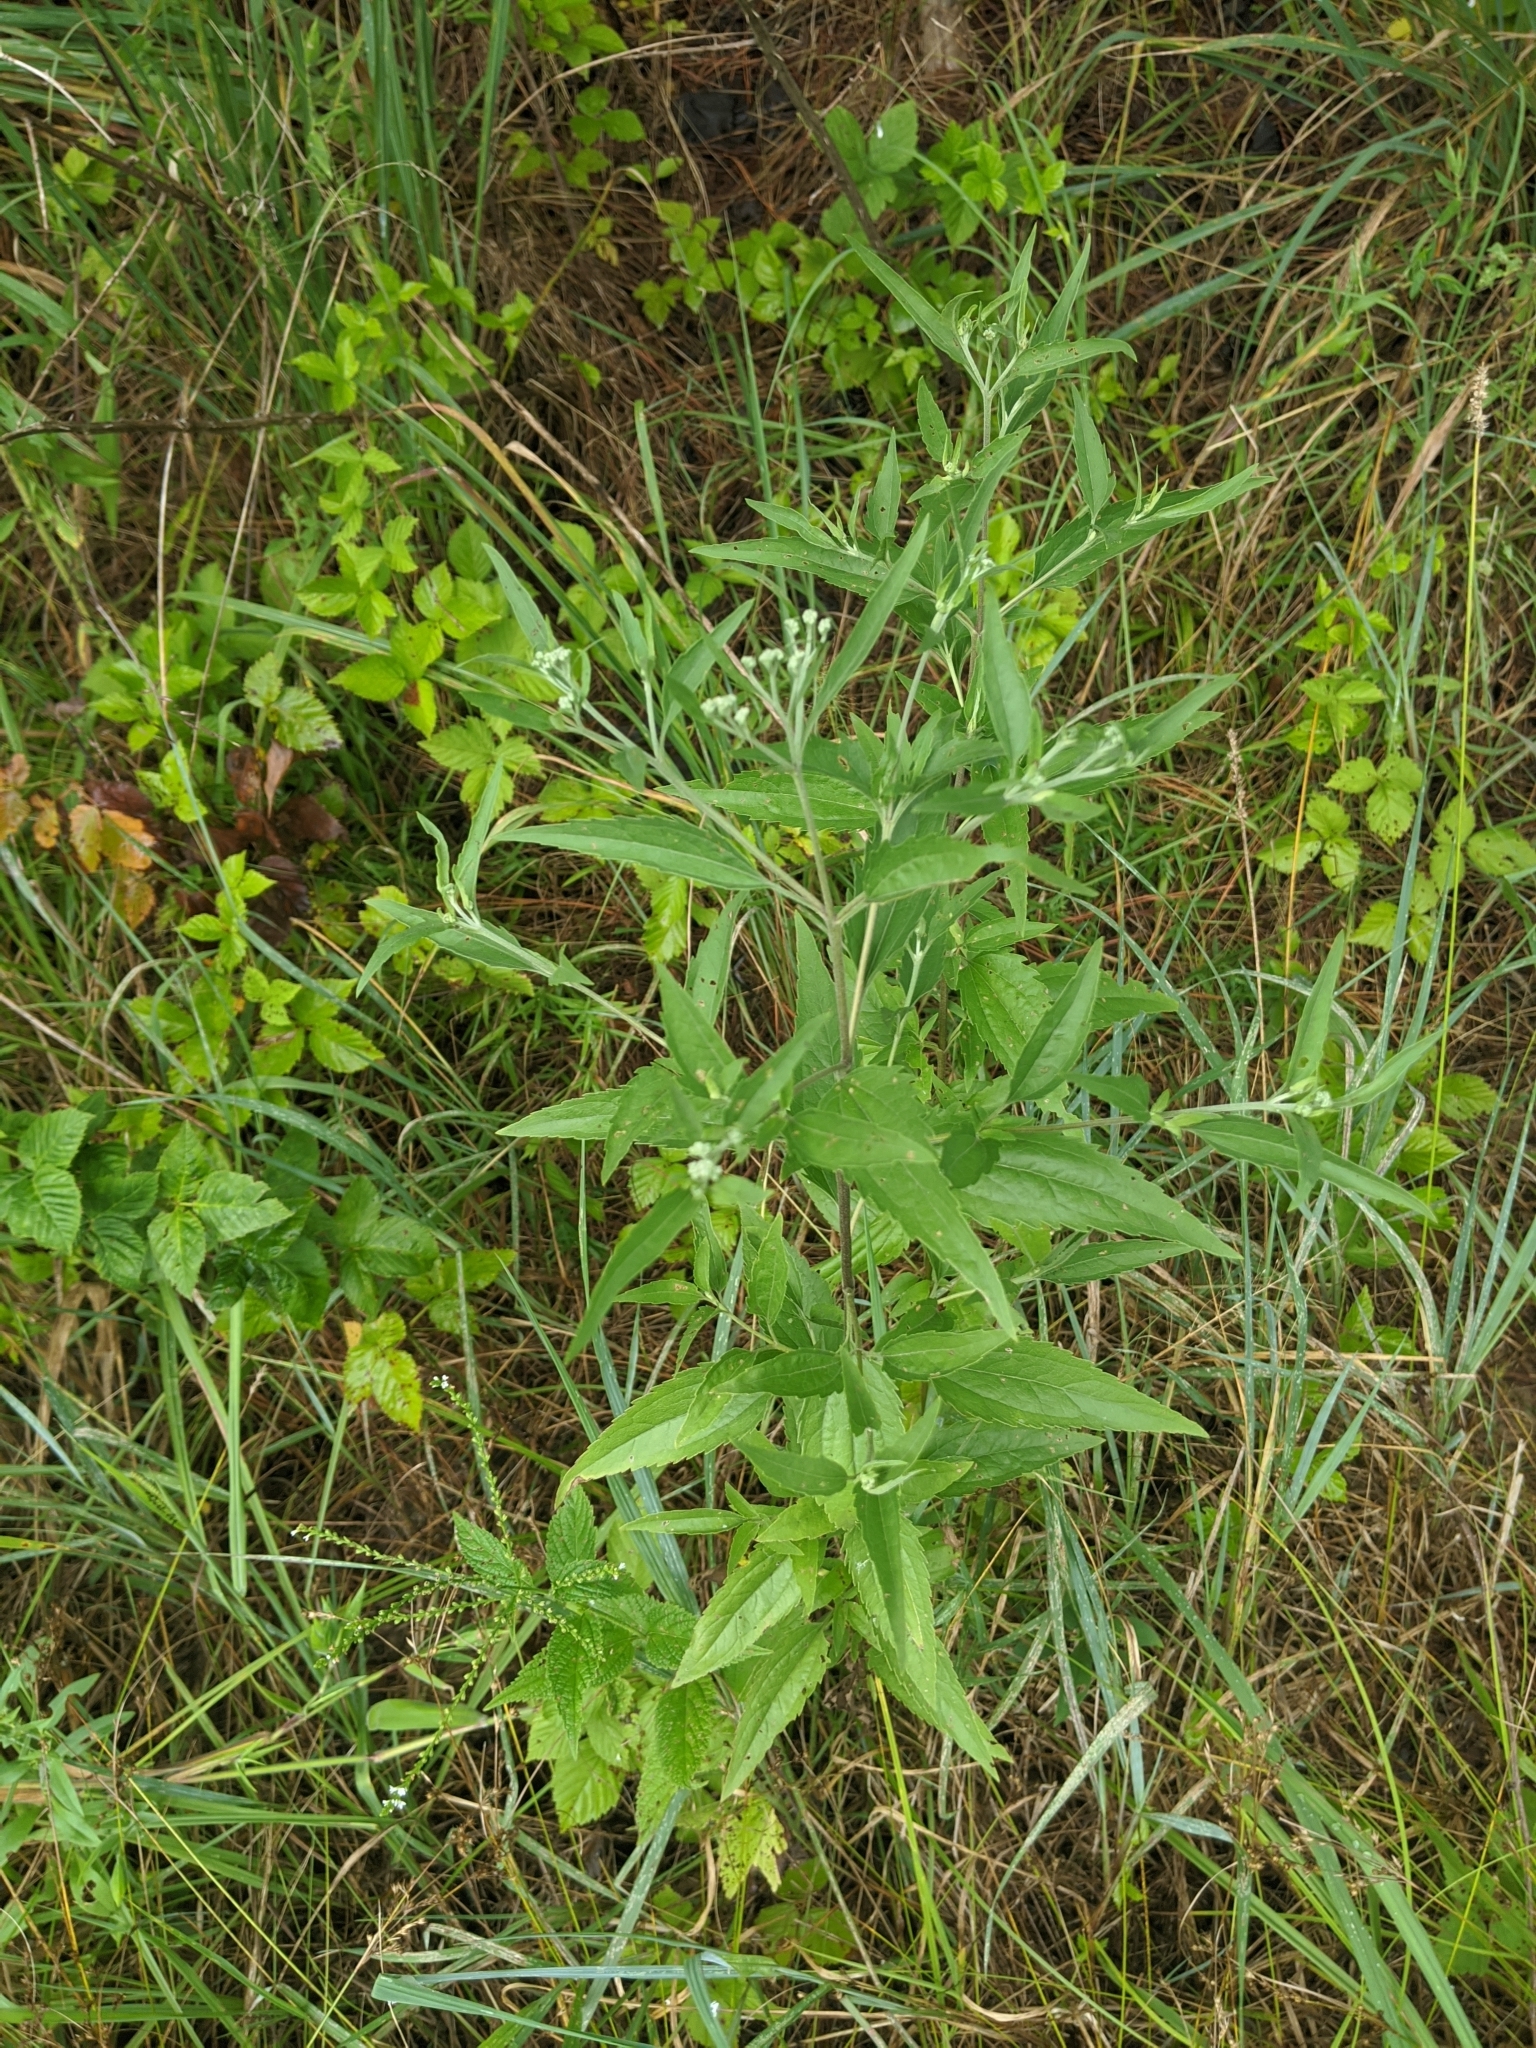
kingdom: Plantae
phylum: Tracheophyta
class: Magnoliopsida
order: Asterales
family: Asteraceae
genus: Eupatorium
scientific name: Eupatorium serotinum
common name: Late boneset
